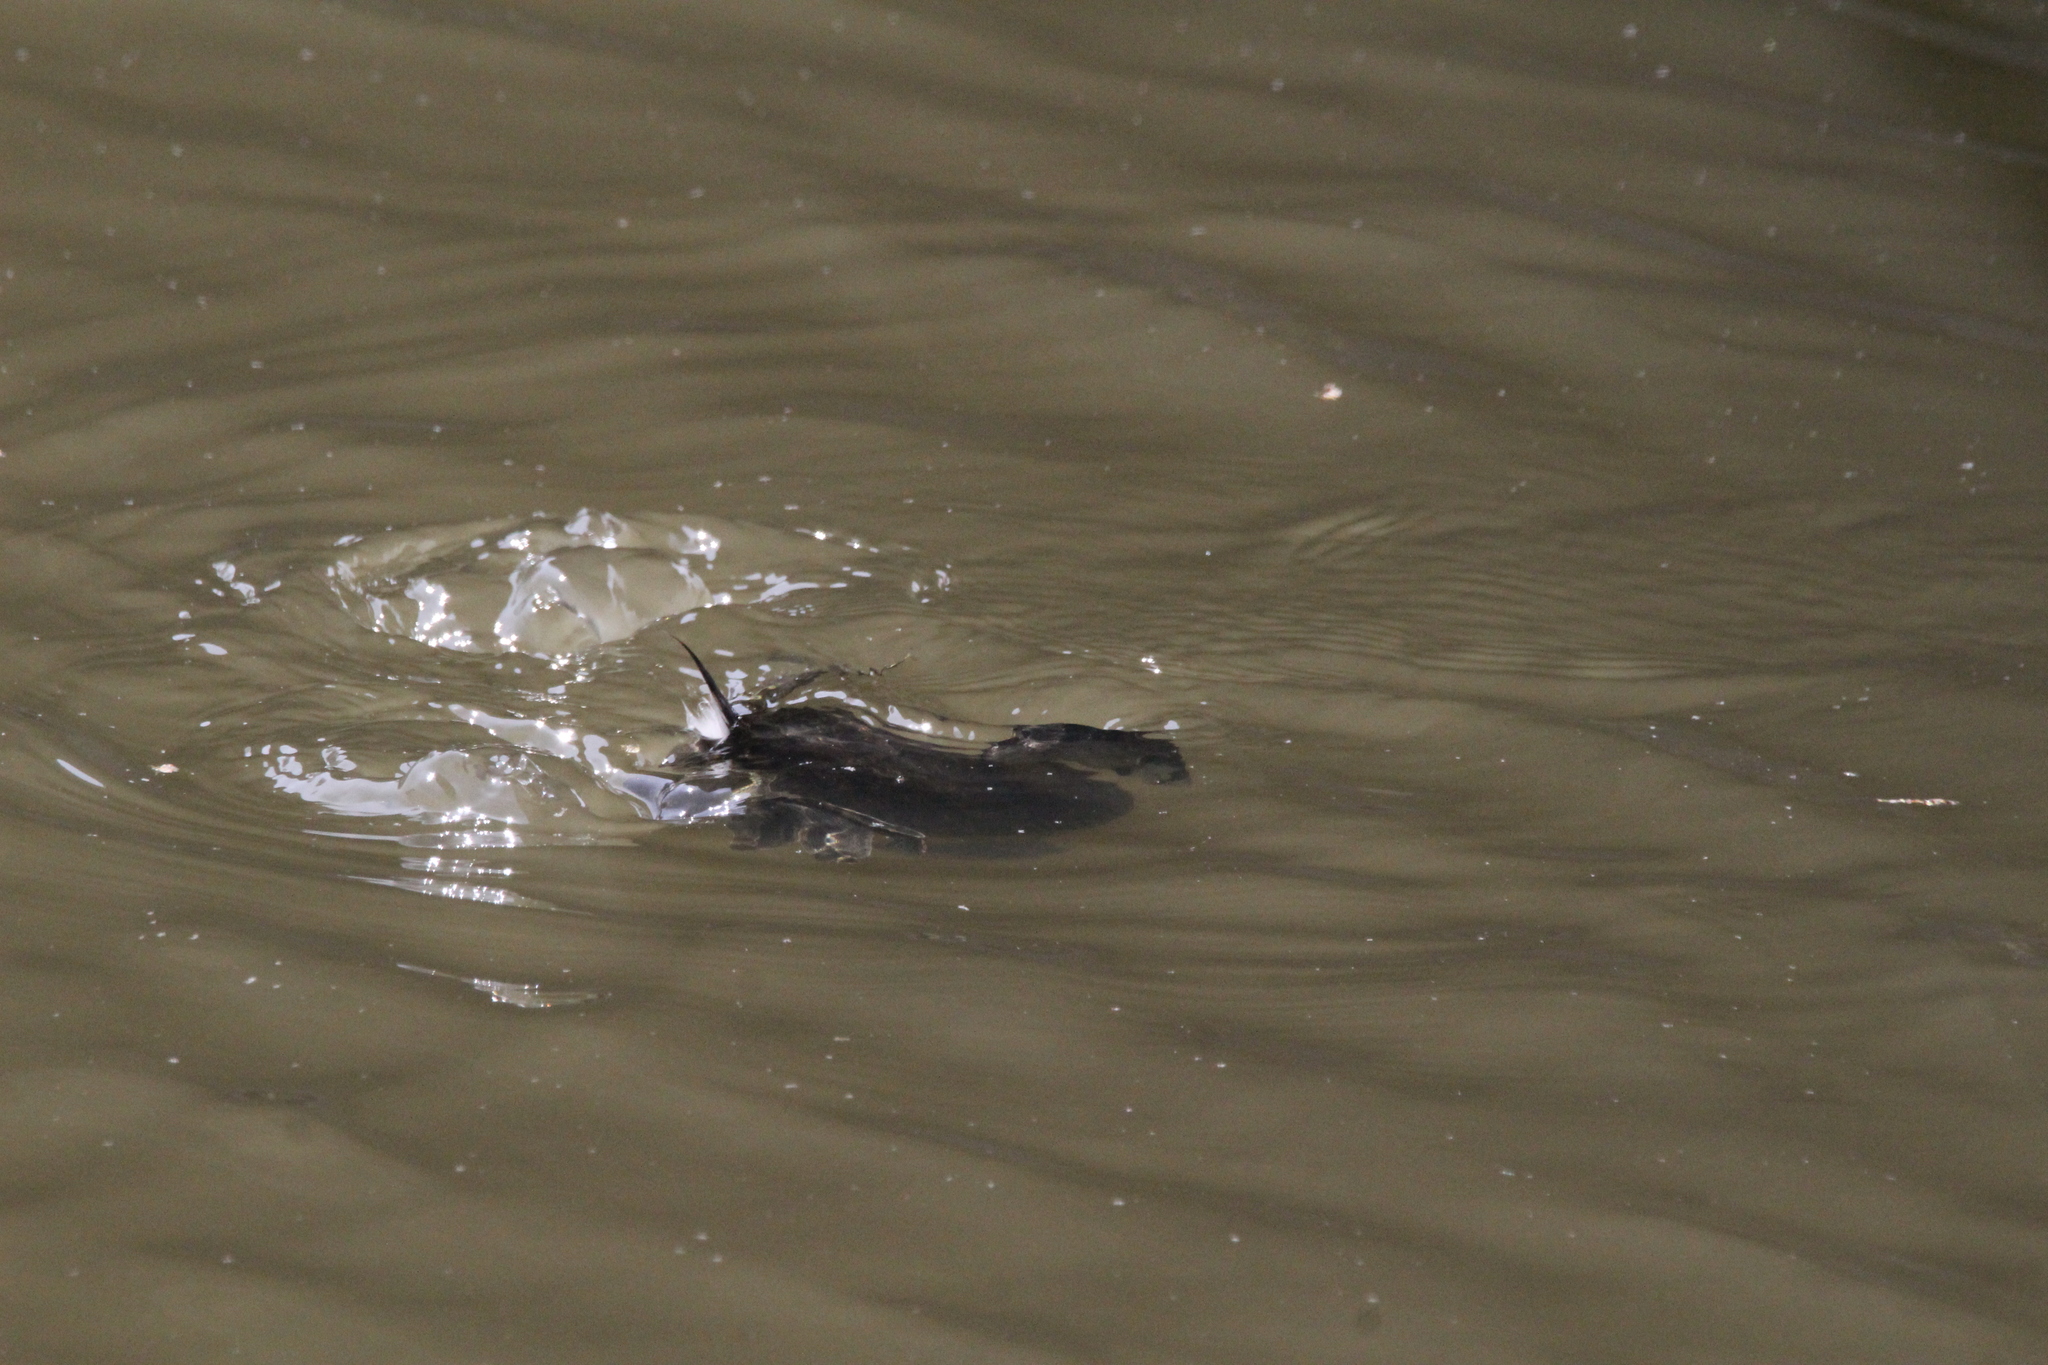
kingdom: Animalia
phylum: Chordata
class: Aves
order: Podicipediformes
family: Podicipedidae
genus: Podilymbus
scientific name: Podilymbus podiceps
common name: Pied-billed grebe
